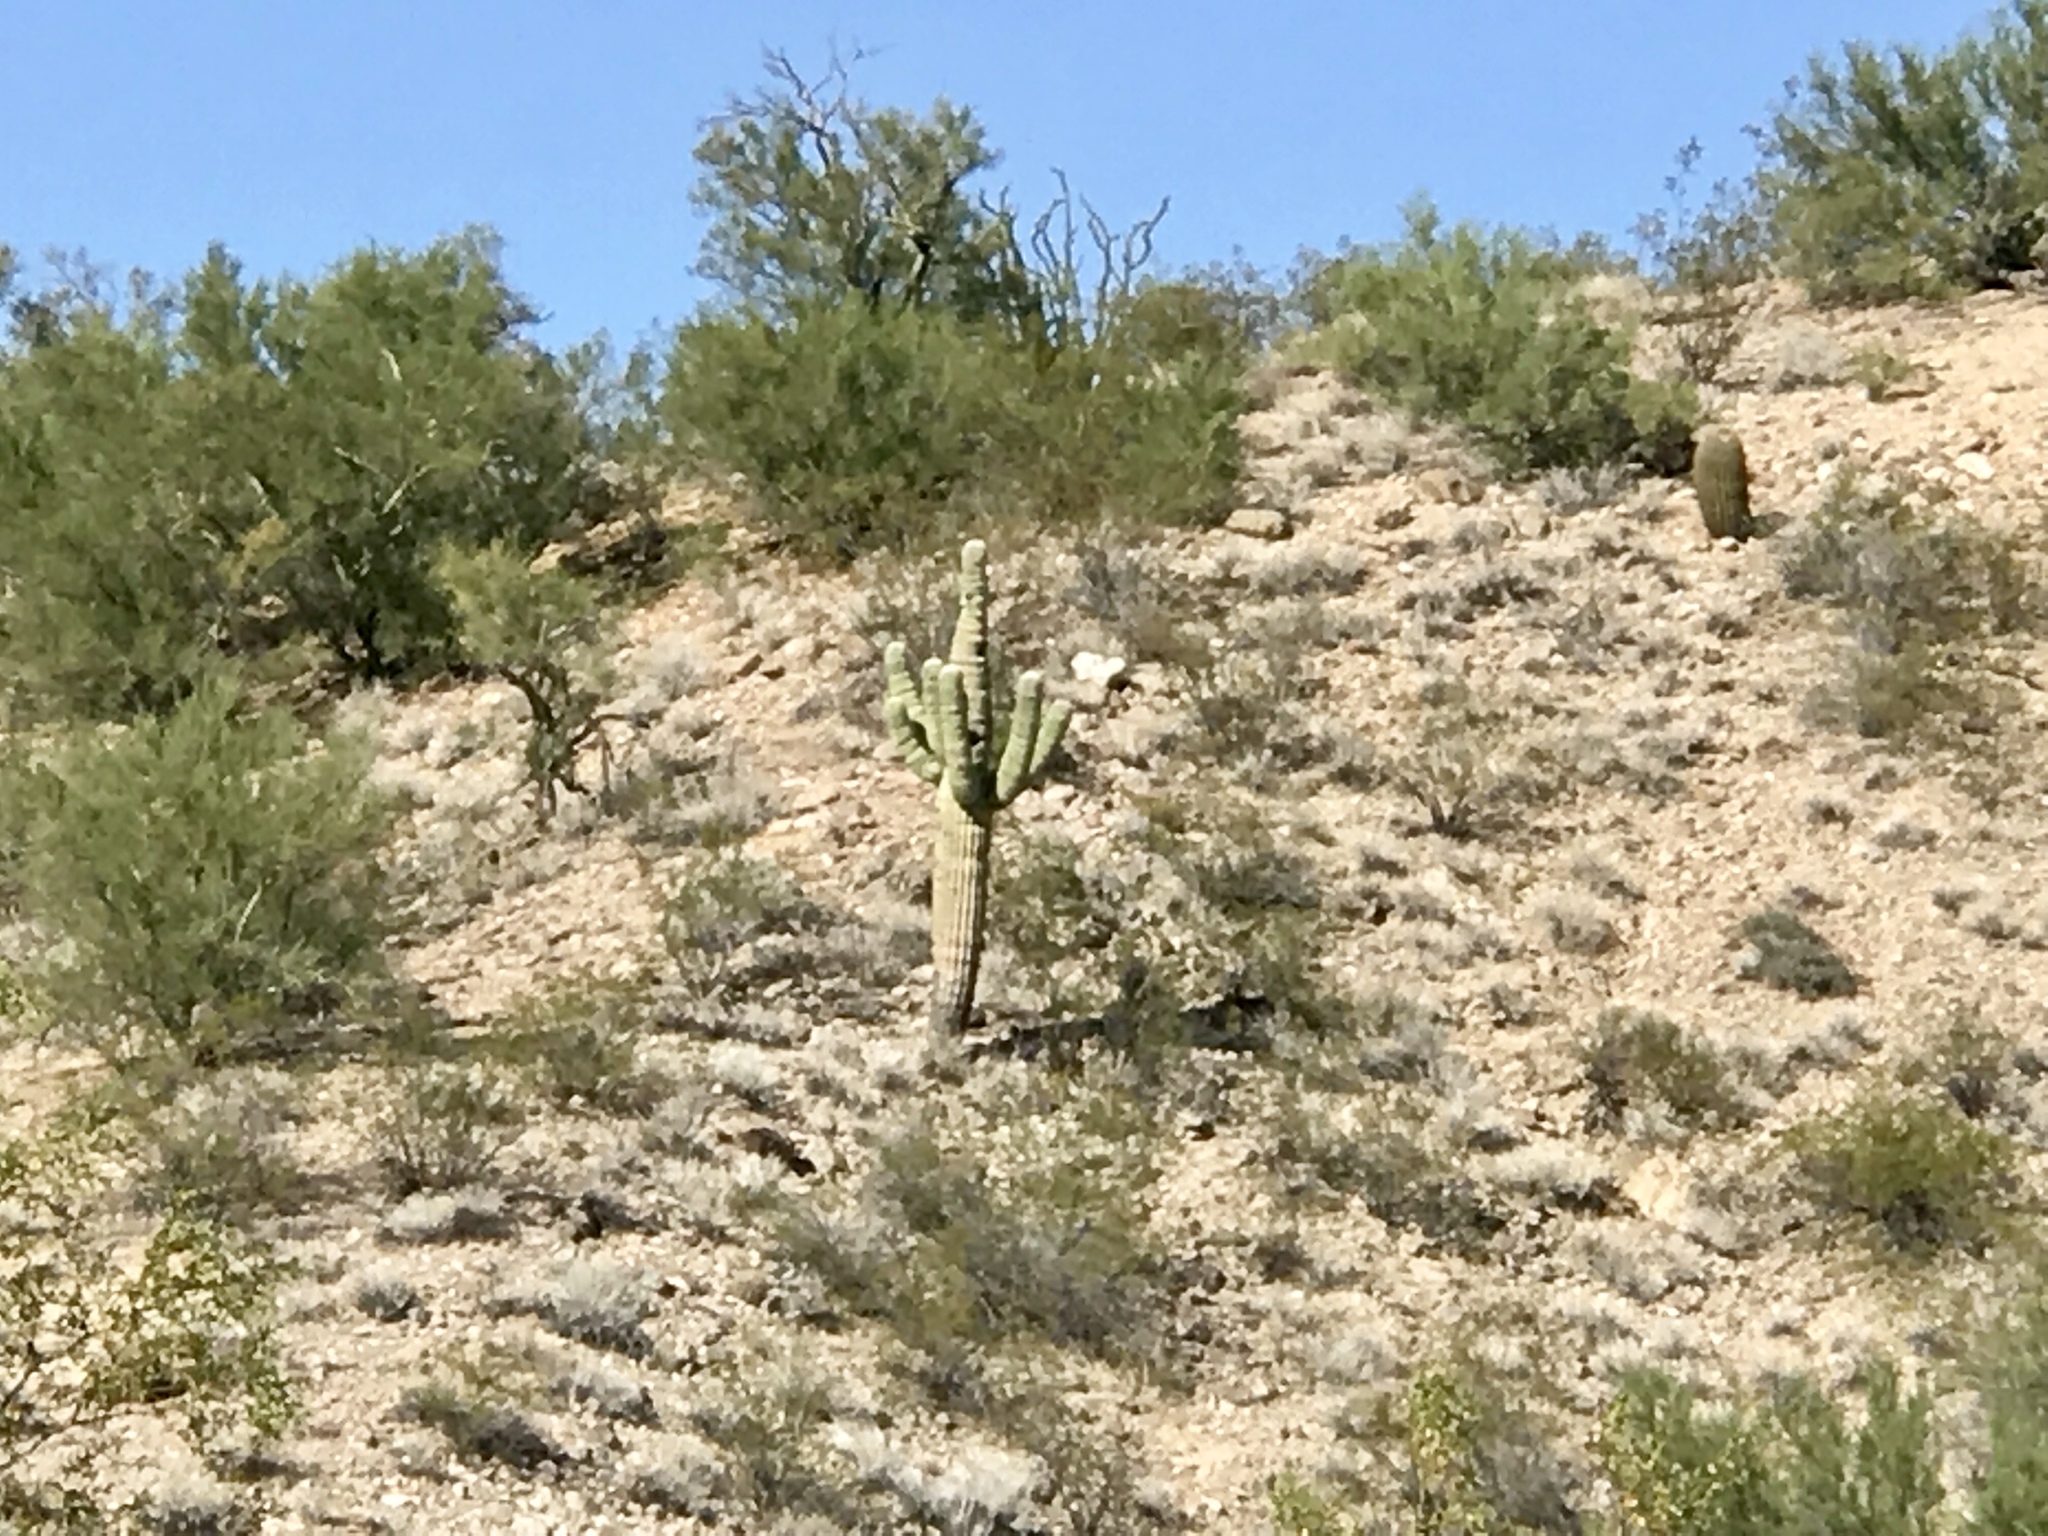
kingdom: Plantae
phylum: Tracheophyta
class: Magnoliopsida
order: Caryophyllales
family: Cactaceae
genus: Carnegiea
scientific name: Carnegiea gigantea
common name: Saguaro
